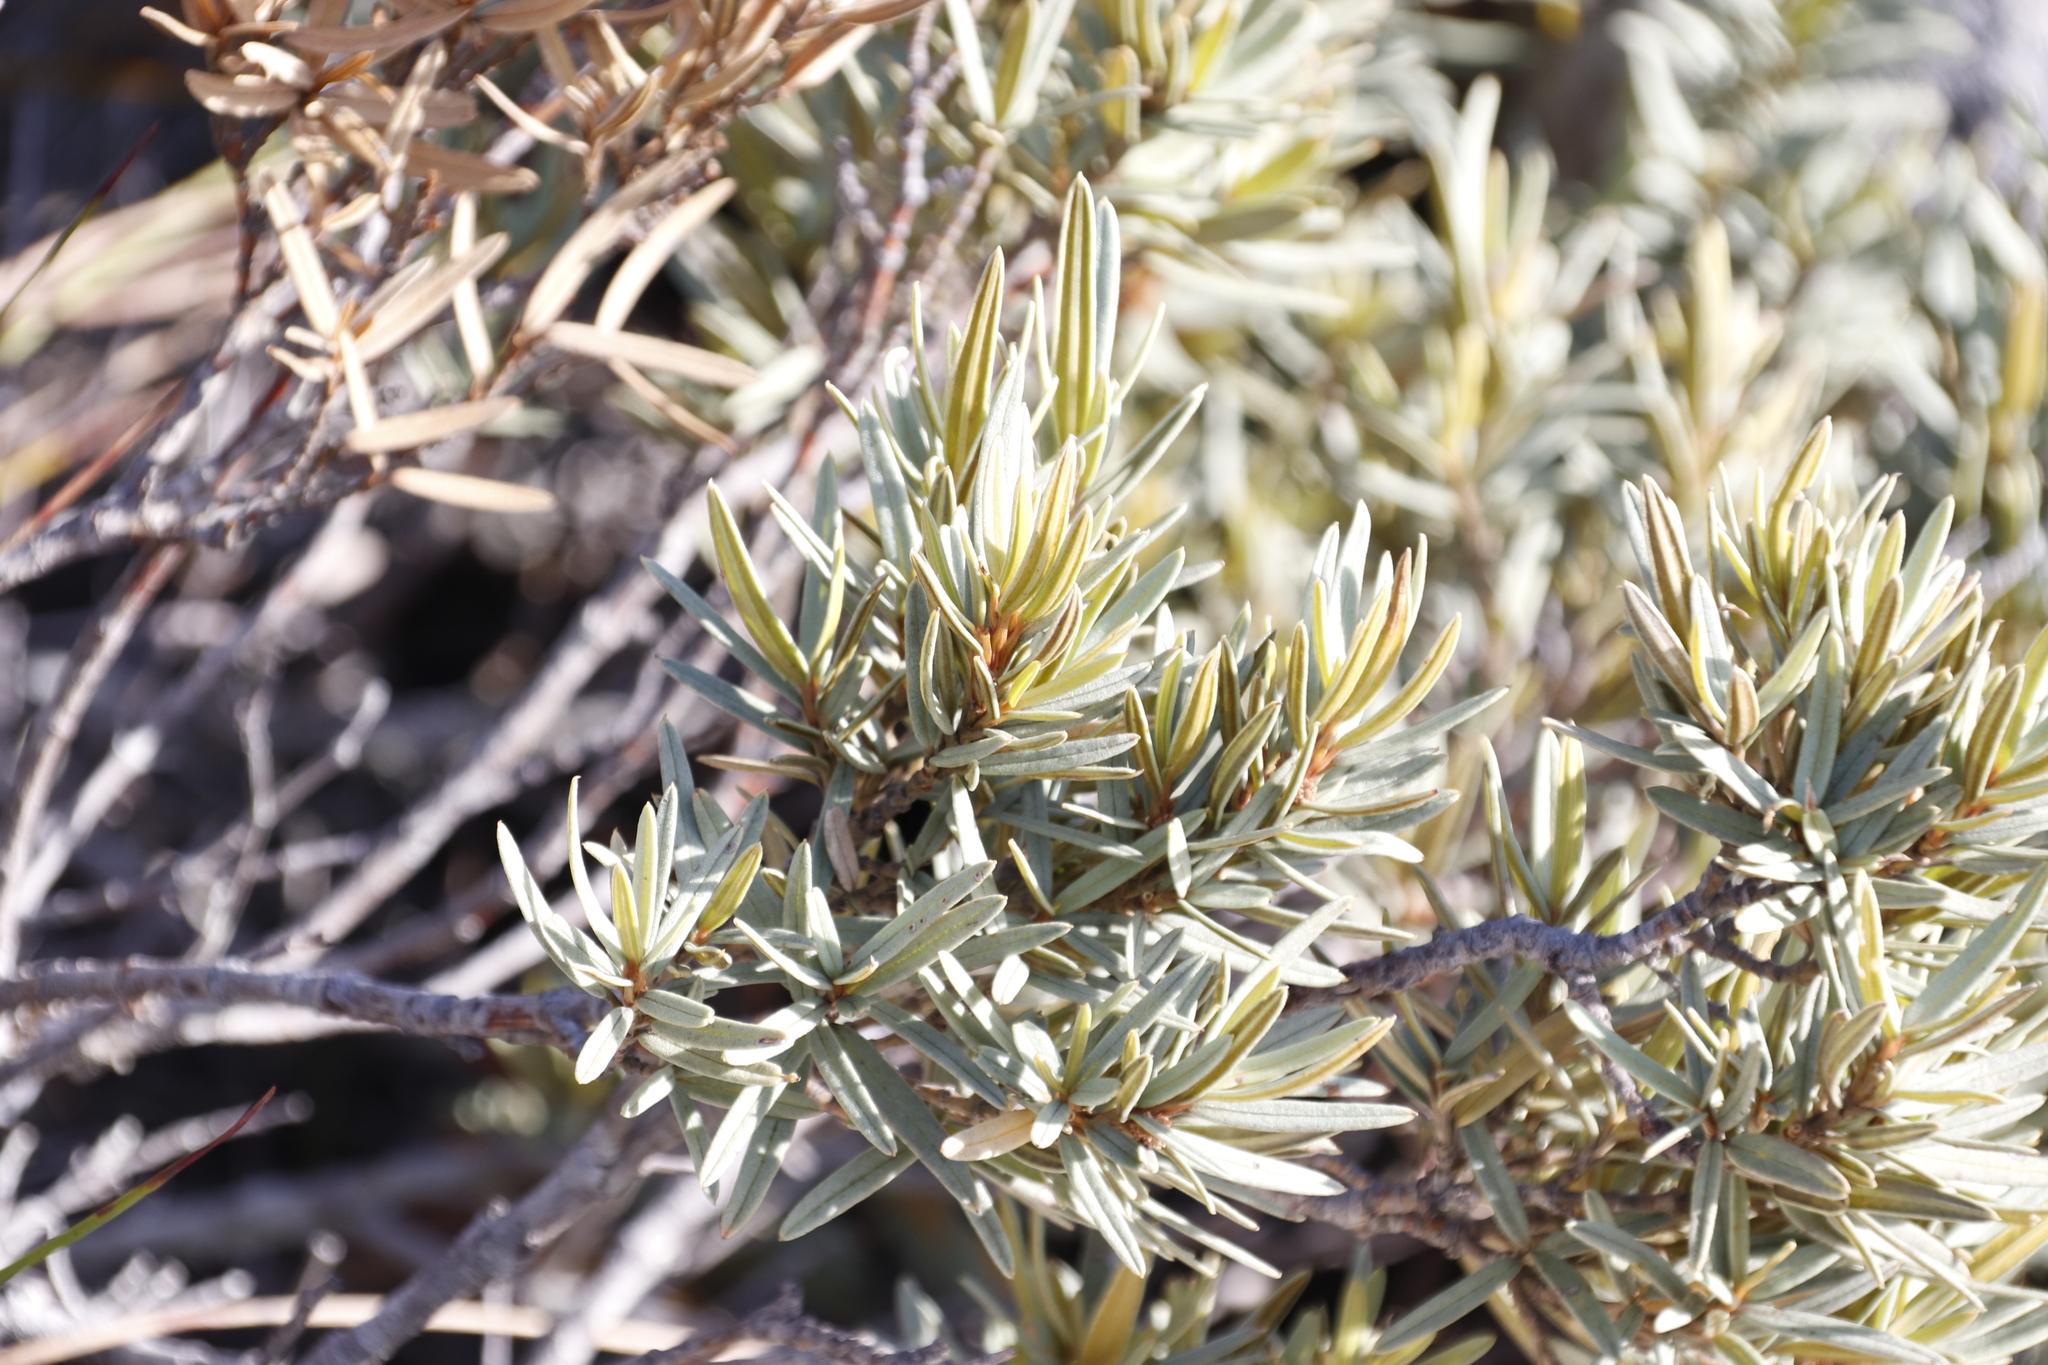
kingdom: Plantae
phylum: Tracheophyta
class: Magnoliopsida
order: Cornales
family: Grubbiaceae
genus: Grubbia
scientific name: Grubbia tomentosa
